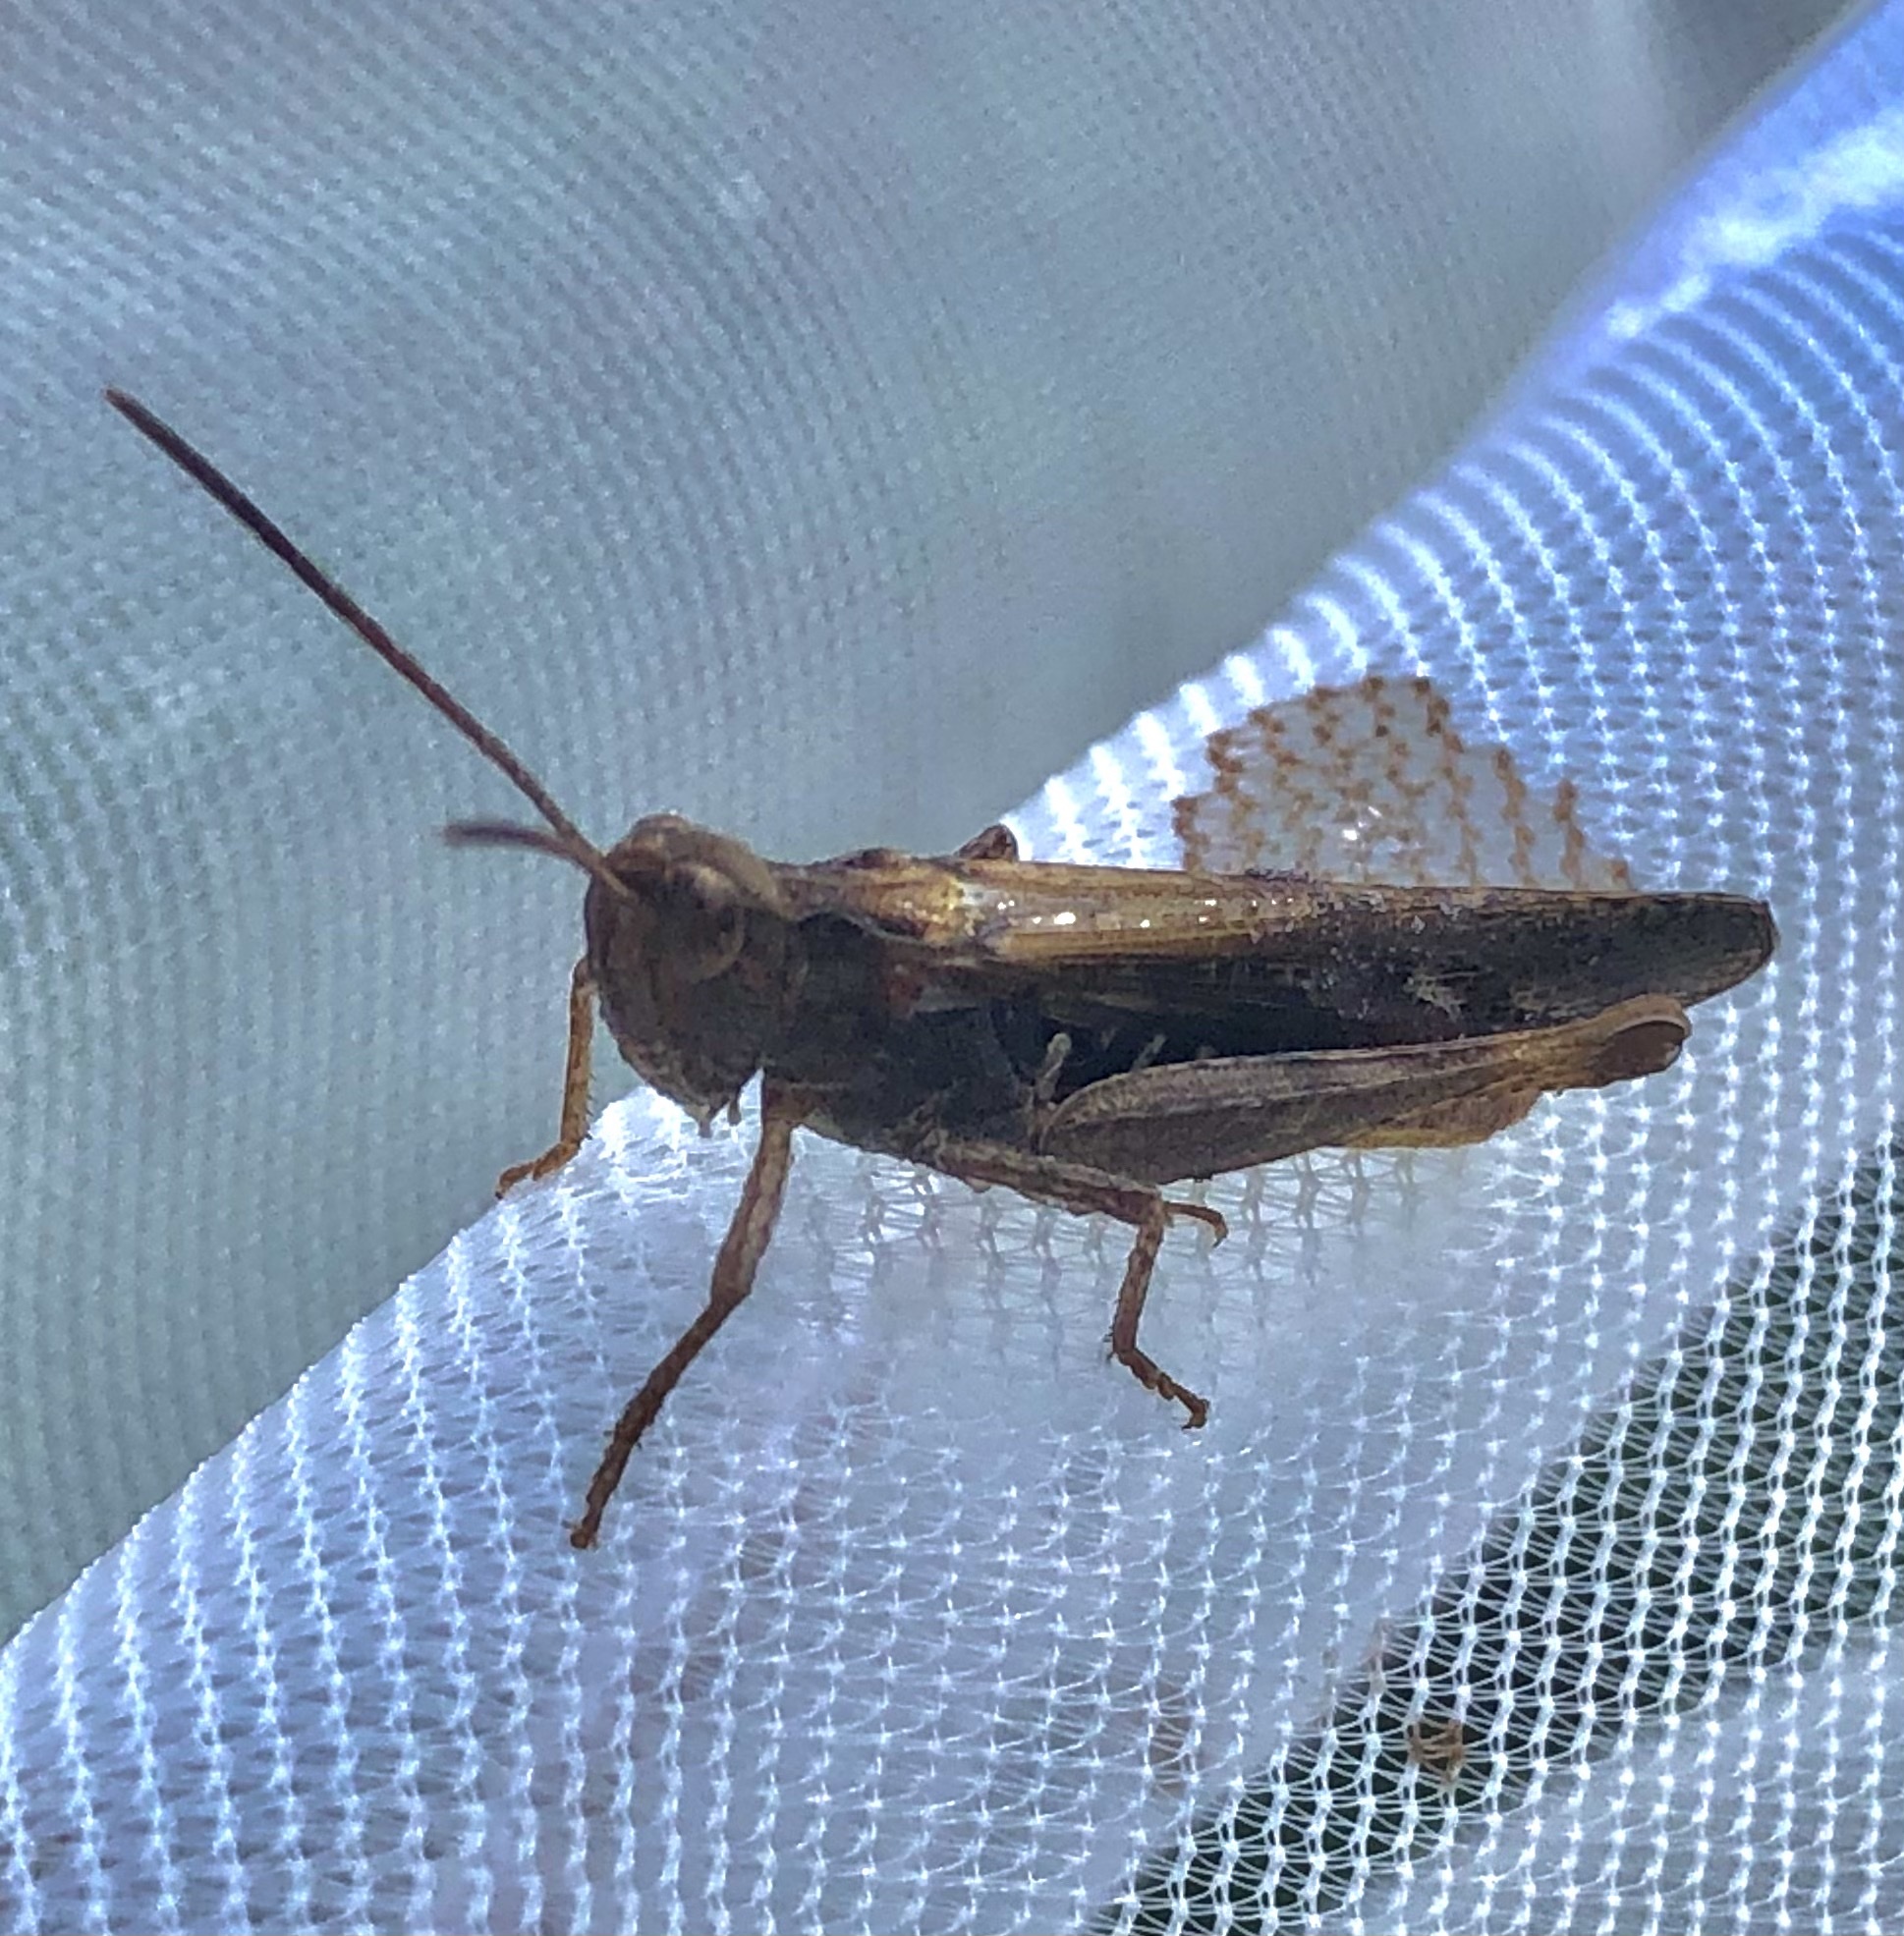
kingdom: Animalia
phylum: Arthropoda
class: Insecta
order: Orthoptera
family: Acrididae
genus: Chorthippus
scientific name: Chorthippus vagans
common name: Heath grasshopper
